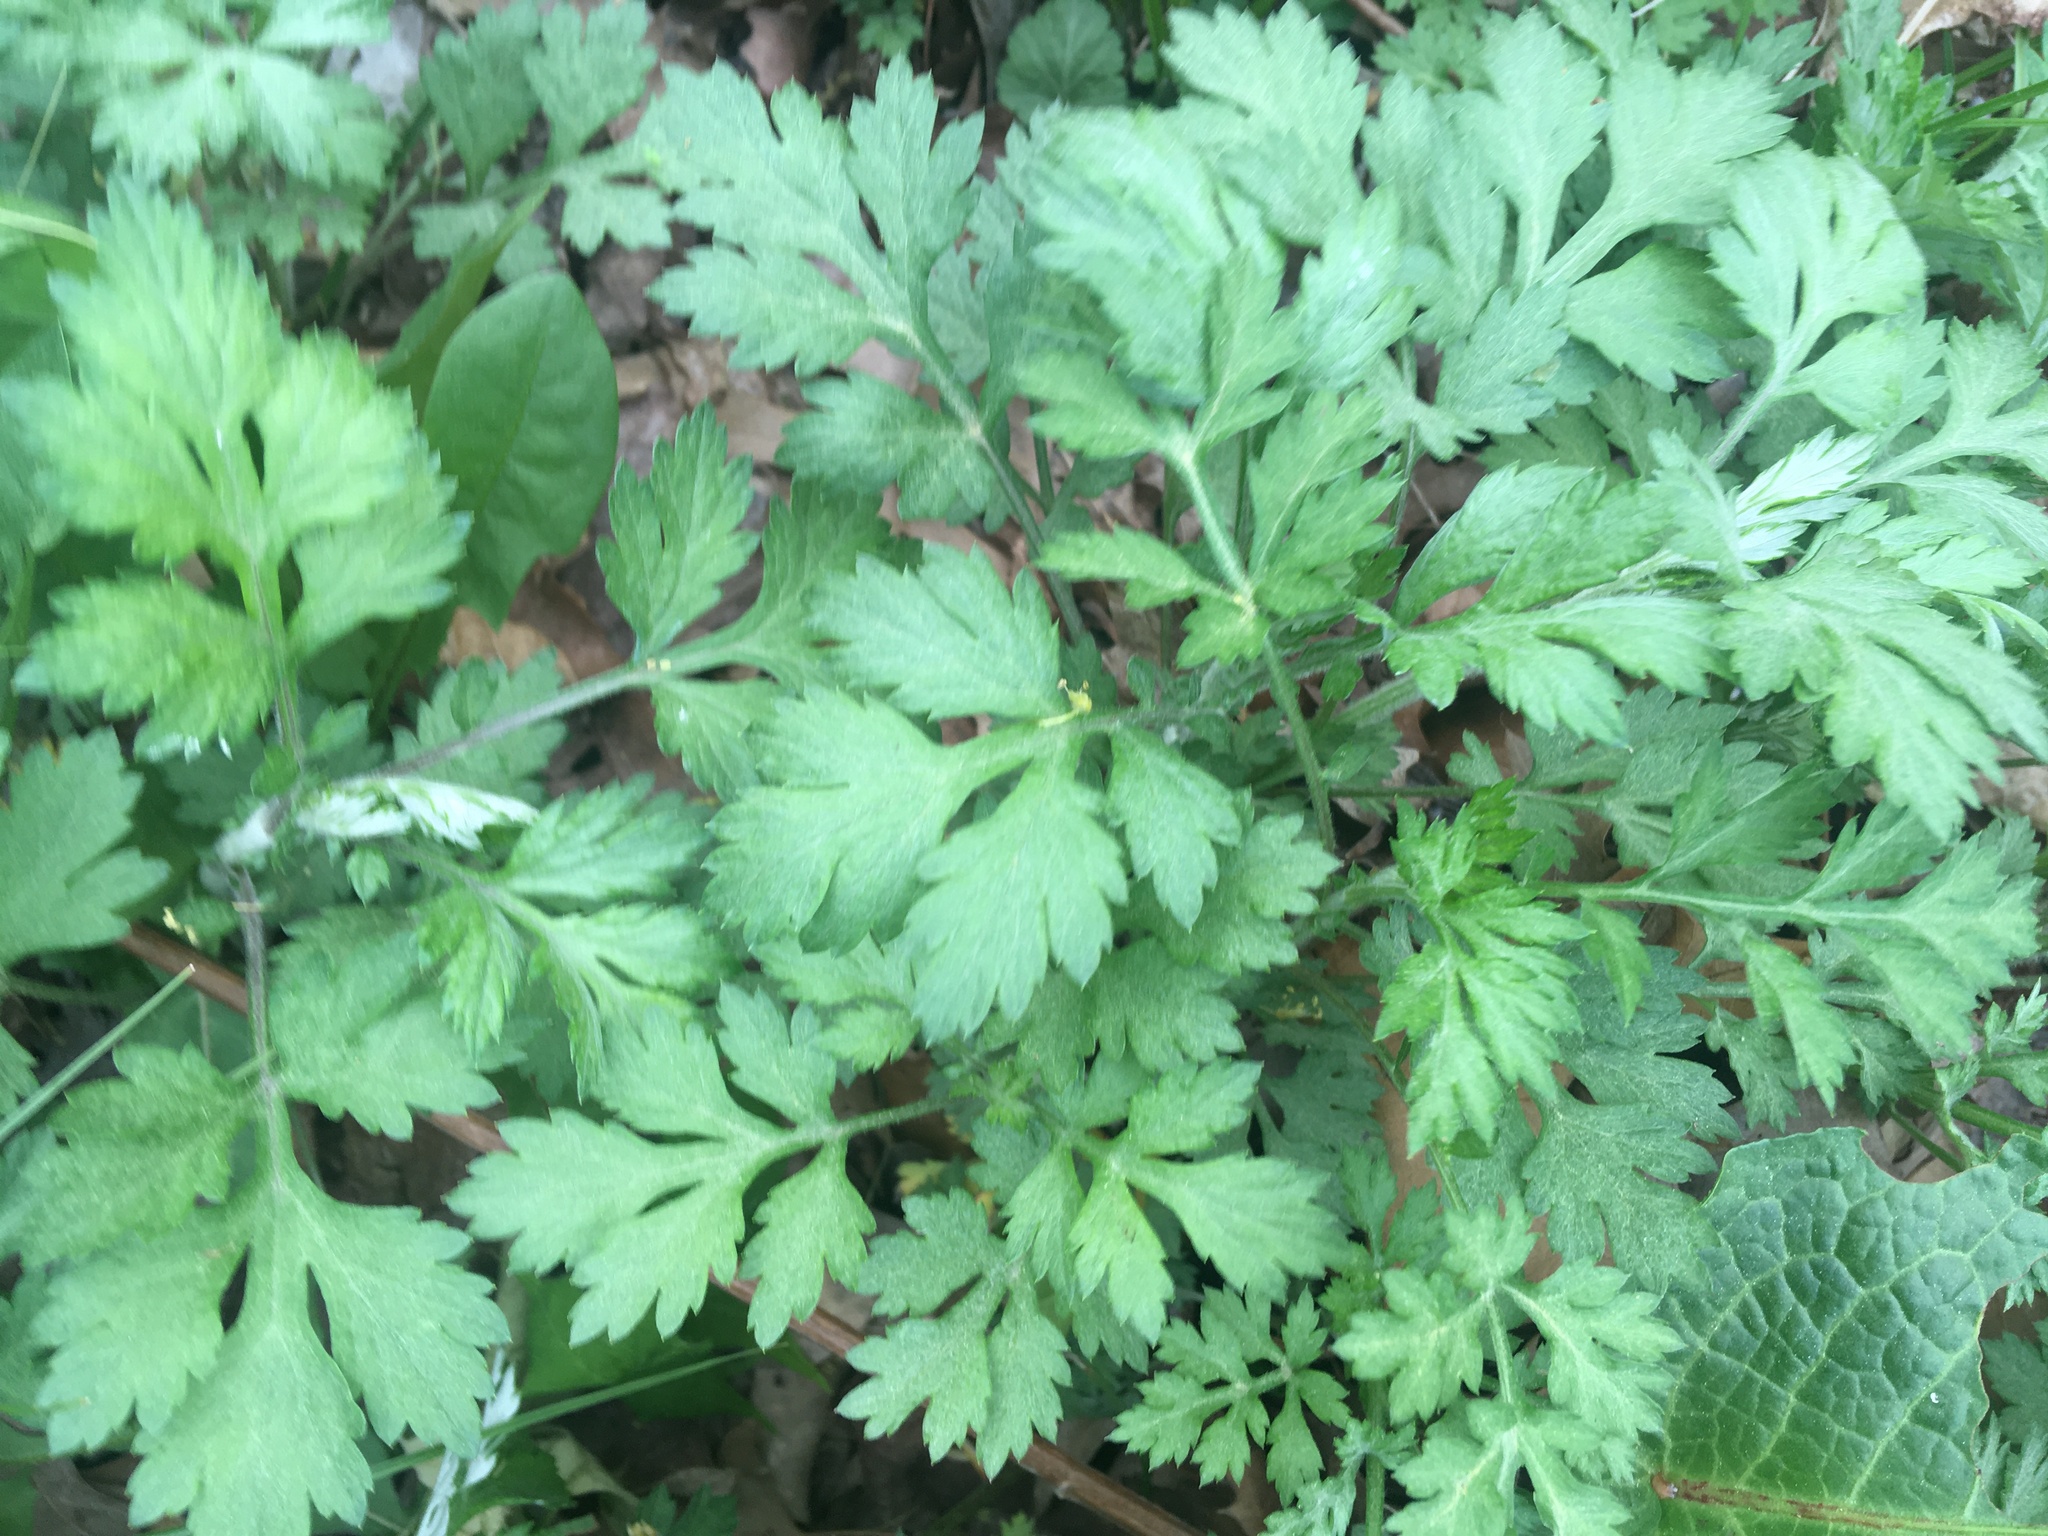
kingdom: Plantae
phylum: Tracheophyta
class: Magnoliopsida
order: Asterales
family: Asteraceae
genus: Artemisia
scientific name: Artemisia vulgaris
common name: Mugwort
